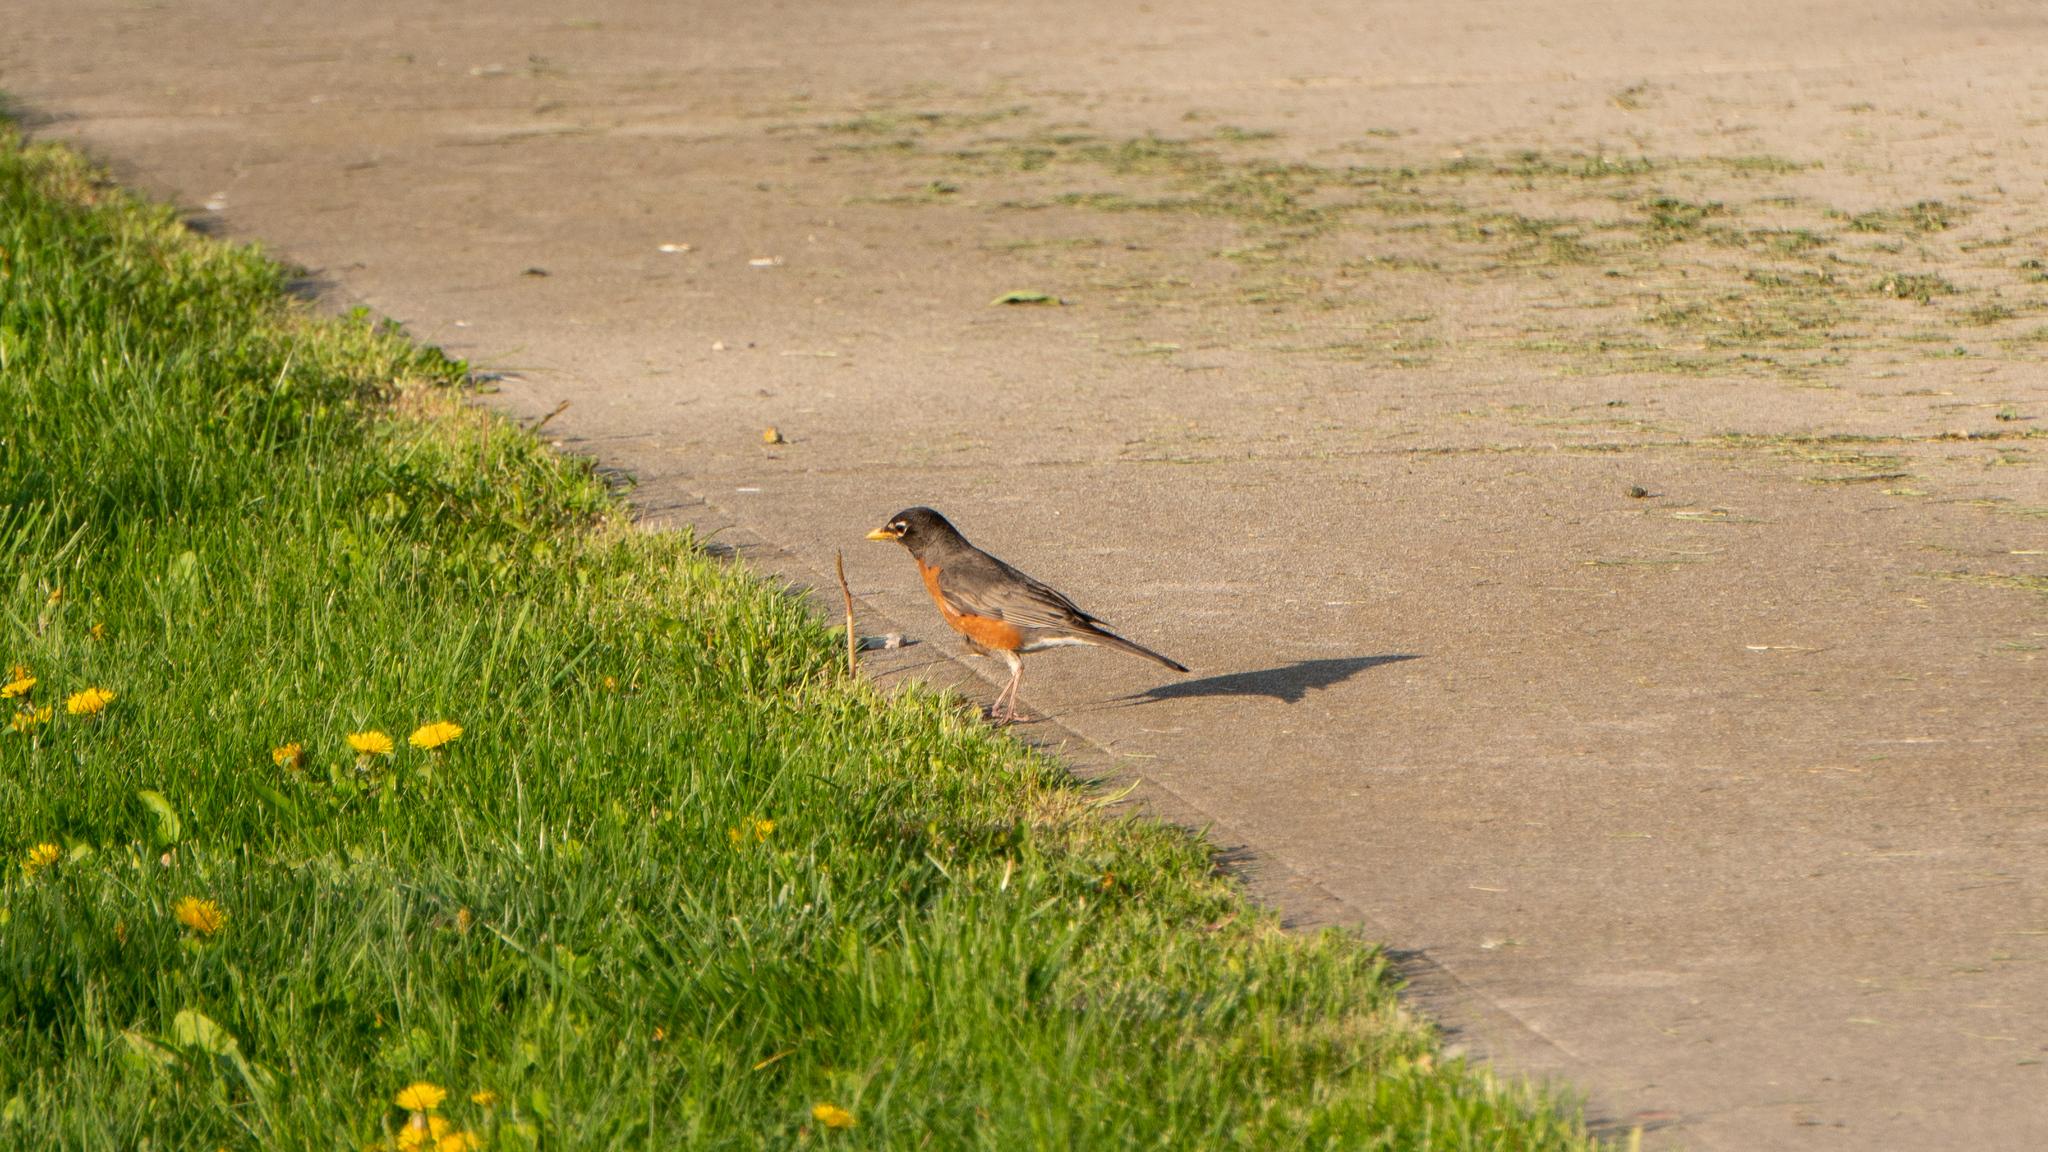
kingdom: Animalia
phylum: Chordata
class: Aves
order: Passeriformes
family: Turdidae
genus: Turdus
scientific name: Turdus migratorius
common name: American robin
